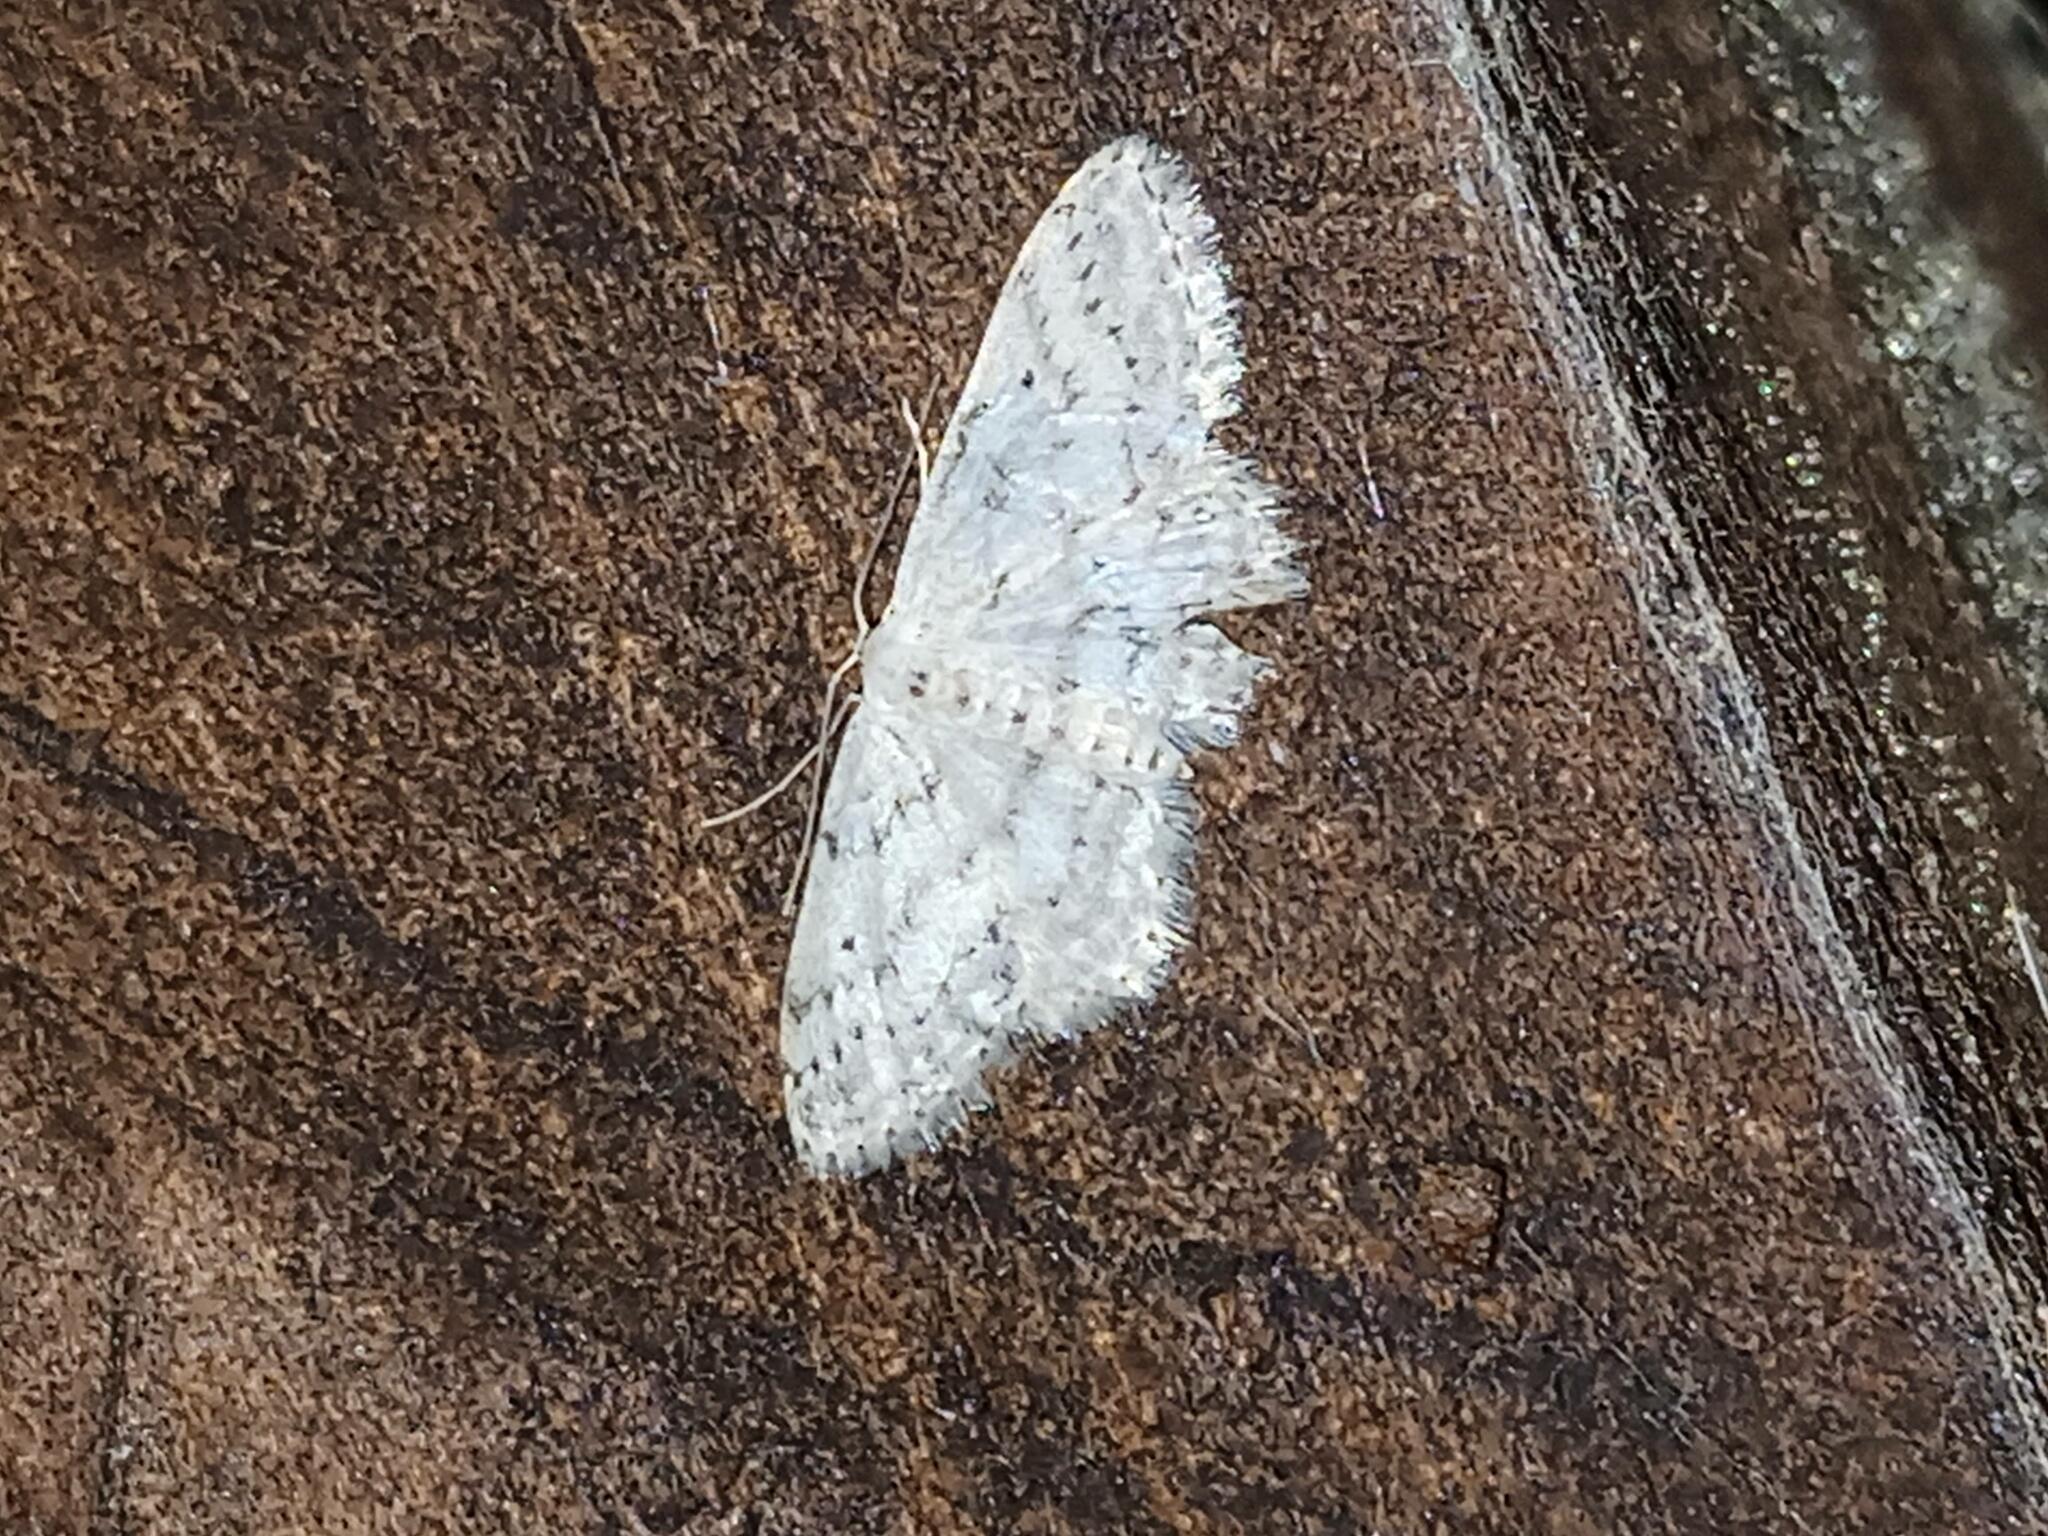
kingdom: Animalia
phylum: Arthropoda
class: Insecta
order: Lepidoptera
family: Geometridae
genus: Idaea
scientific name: Idaea seriata
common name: Small dusty wave
